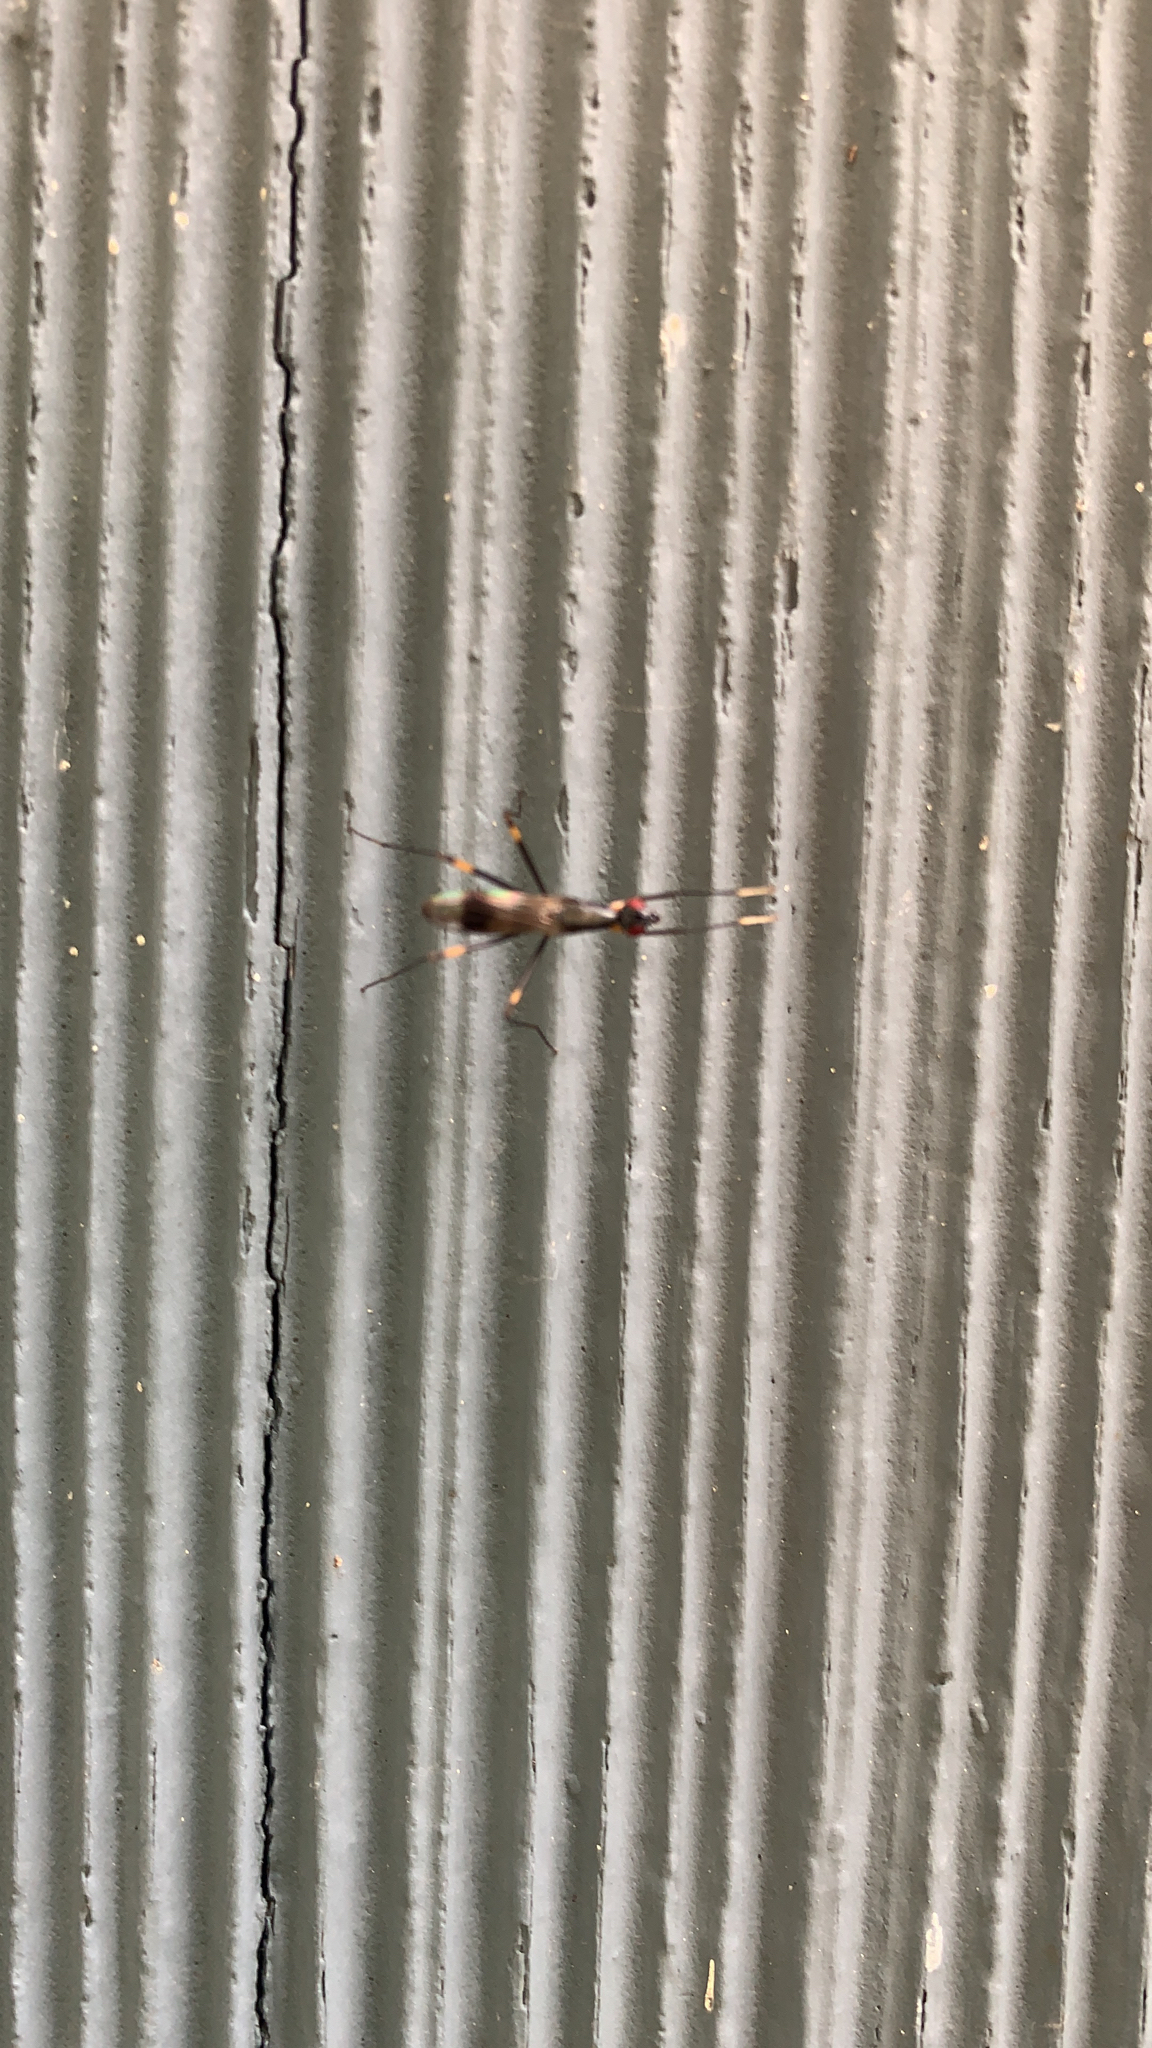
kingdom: Animalia
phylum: Arthropoda
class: Insecta
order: Diptera
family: Micropezidae
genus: Rainieria
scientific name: Rainieria antennaepes
